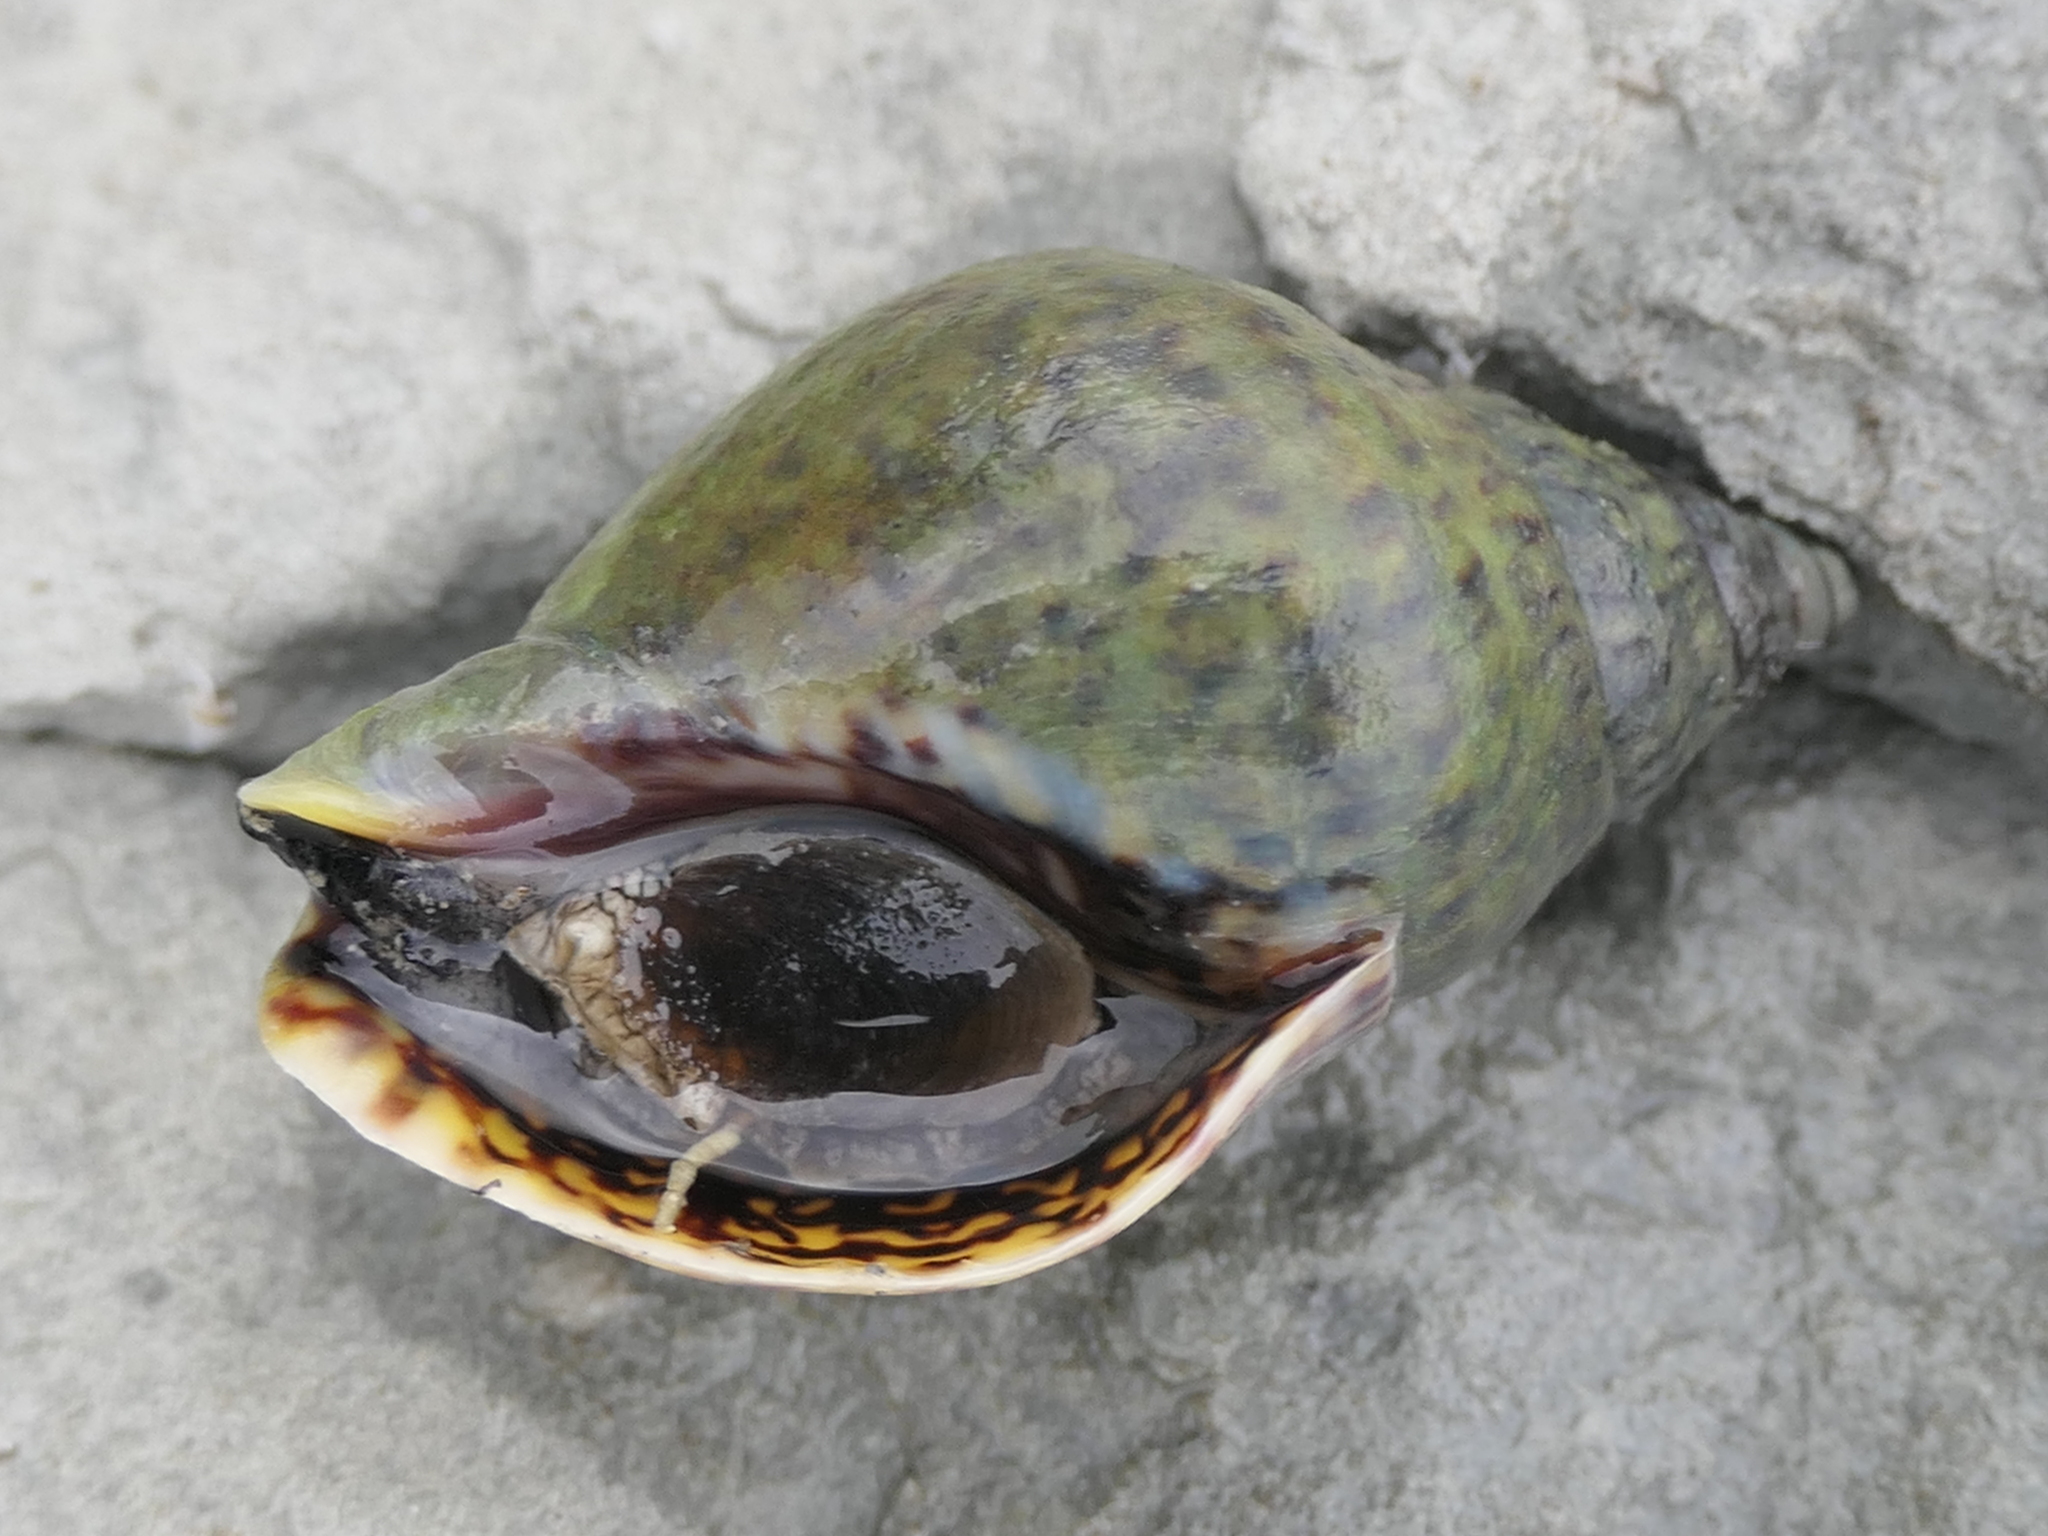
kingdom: Animalia
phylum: Mollusca
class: Gastropoda
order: Neogastropoda
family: Cominellidae
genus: Cominella
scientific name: Cominella maculosa
